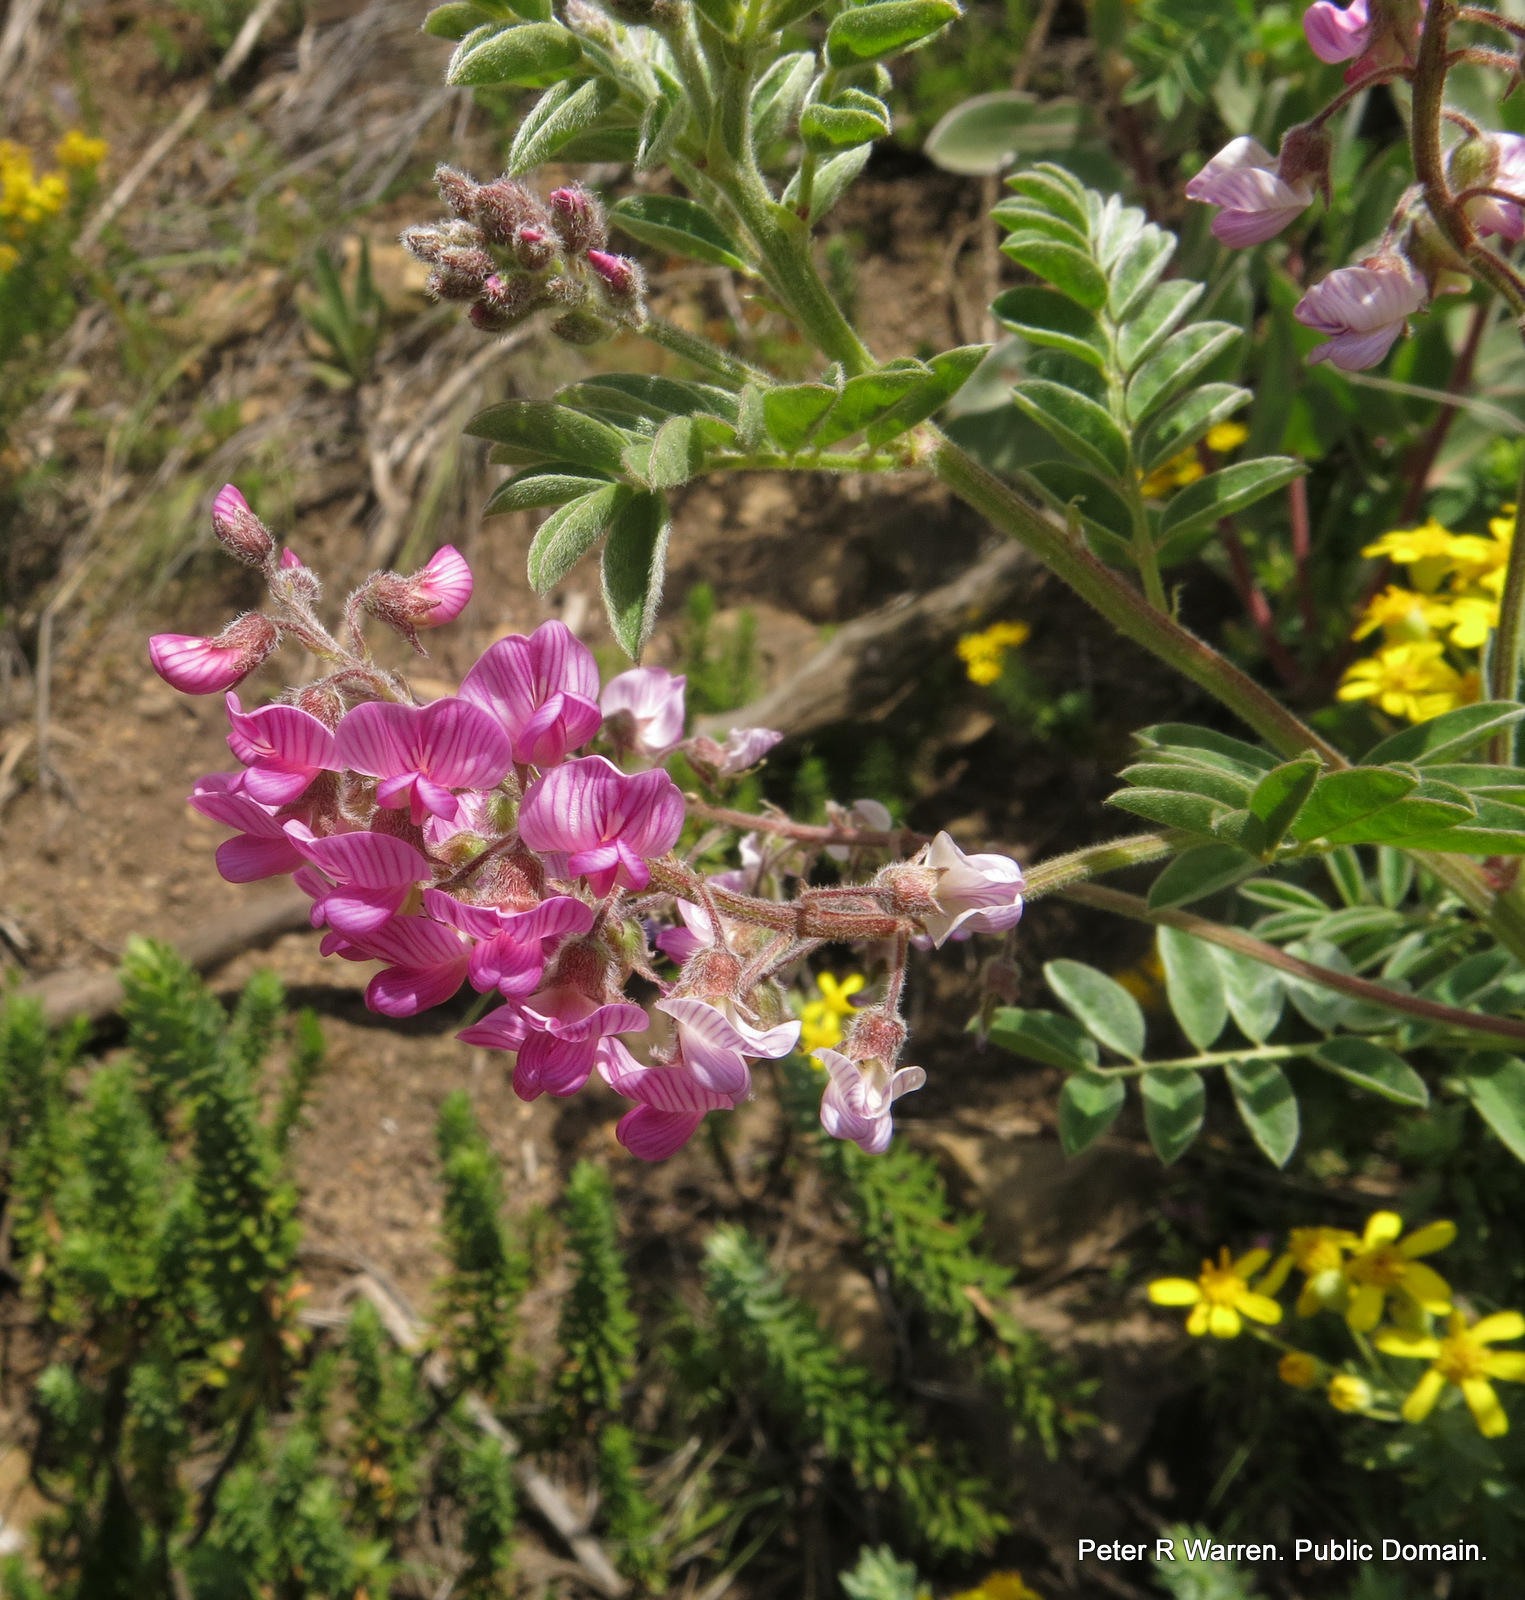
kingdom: Plantae
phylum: Tracheophyta
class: Magnoliopsida
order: Fabales
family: Fabaceae
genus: Lessertia
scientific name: Lessertia perennans
